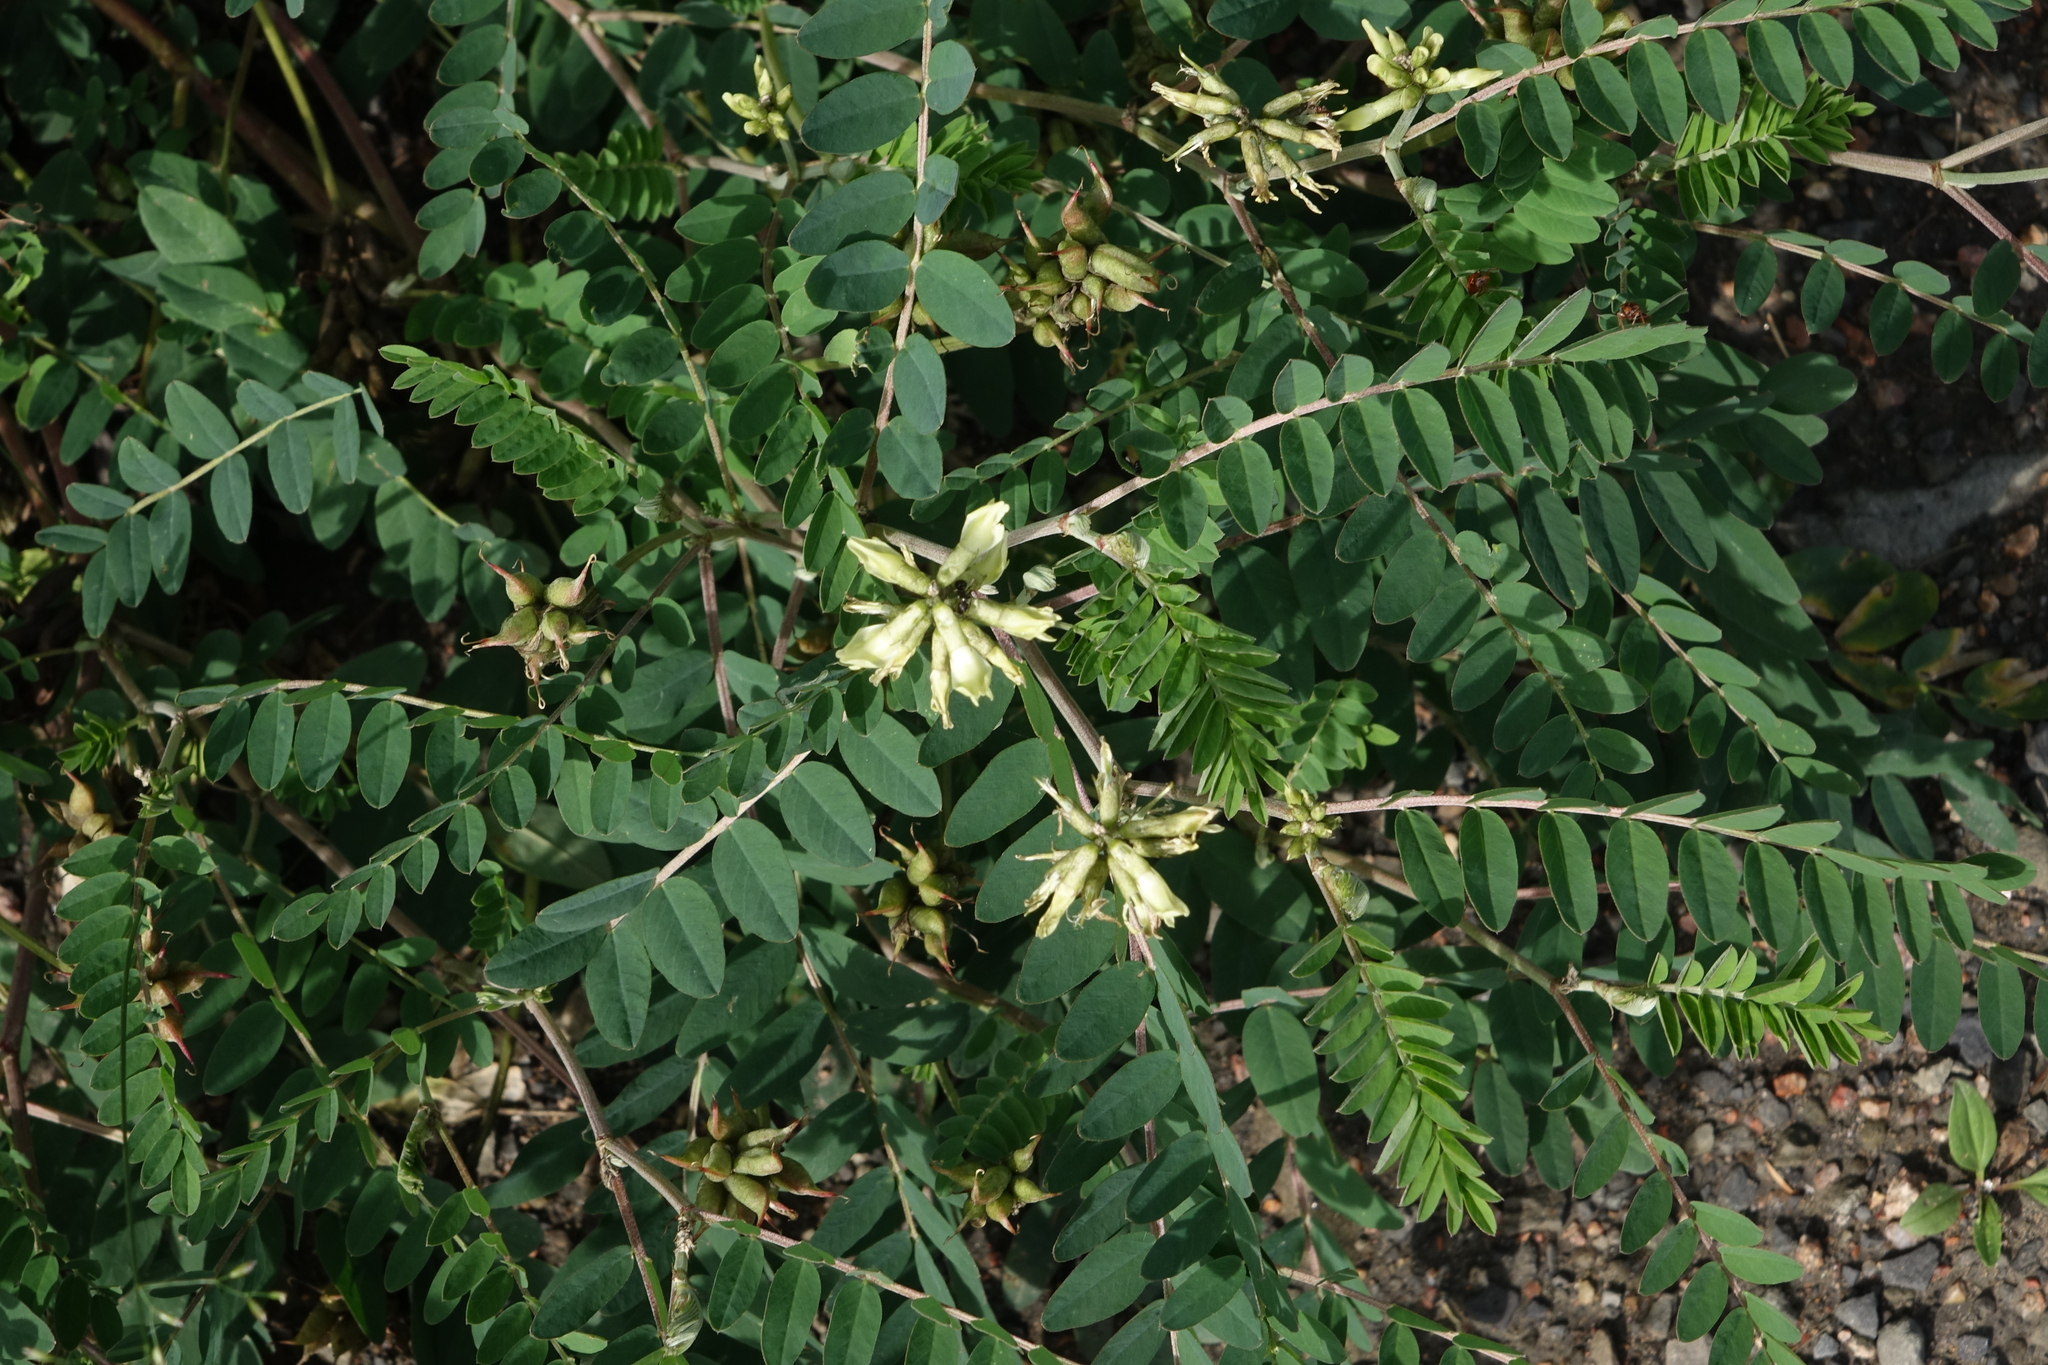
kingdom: Plantae
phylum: Tracheophyta
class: Magnoliopsida
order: Fabales
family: Fabaceae
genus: Astragalus
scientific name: Astragalus schelichowii
